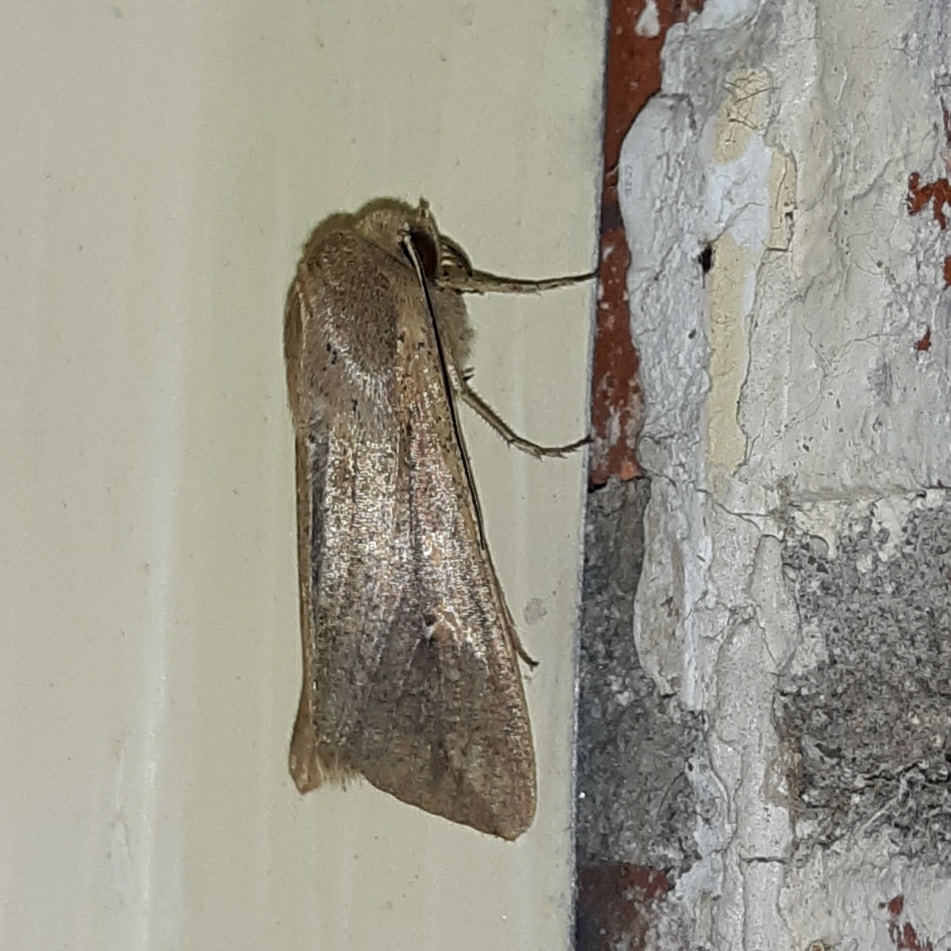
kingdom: Animalia
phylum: Arthropoda
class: Insecta
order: Lepidoptera
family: Noctuidae
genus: Mythimna
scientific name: Mythimna unipuncta
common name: White-speck
